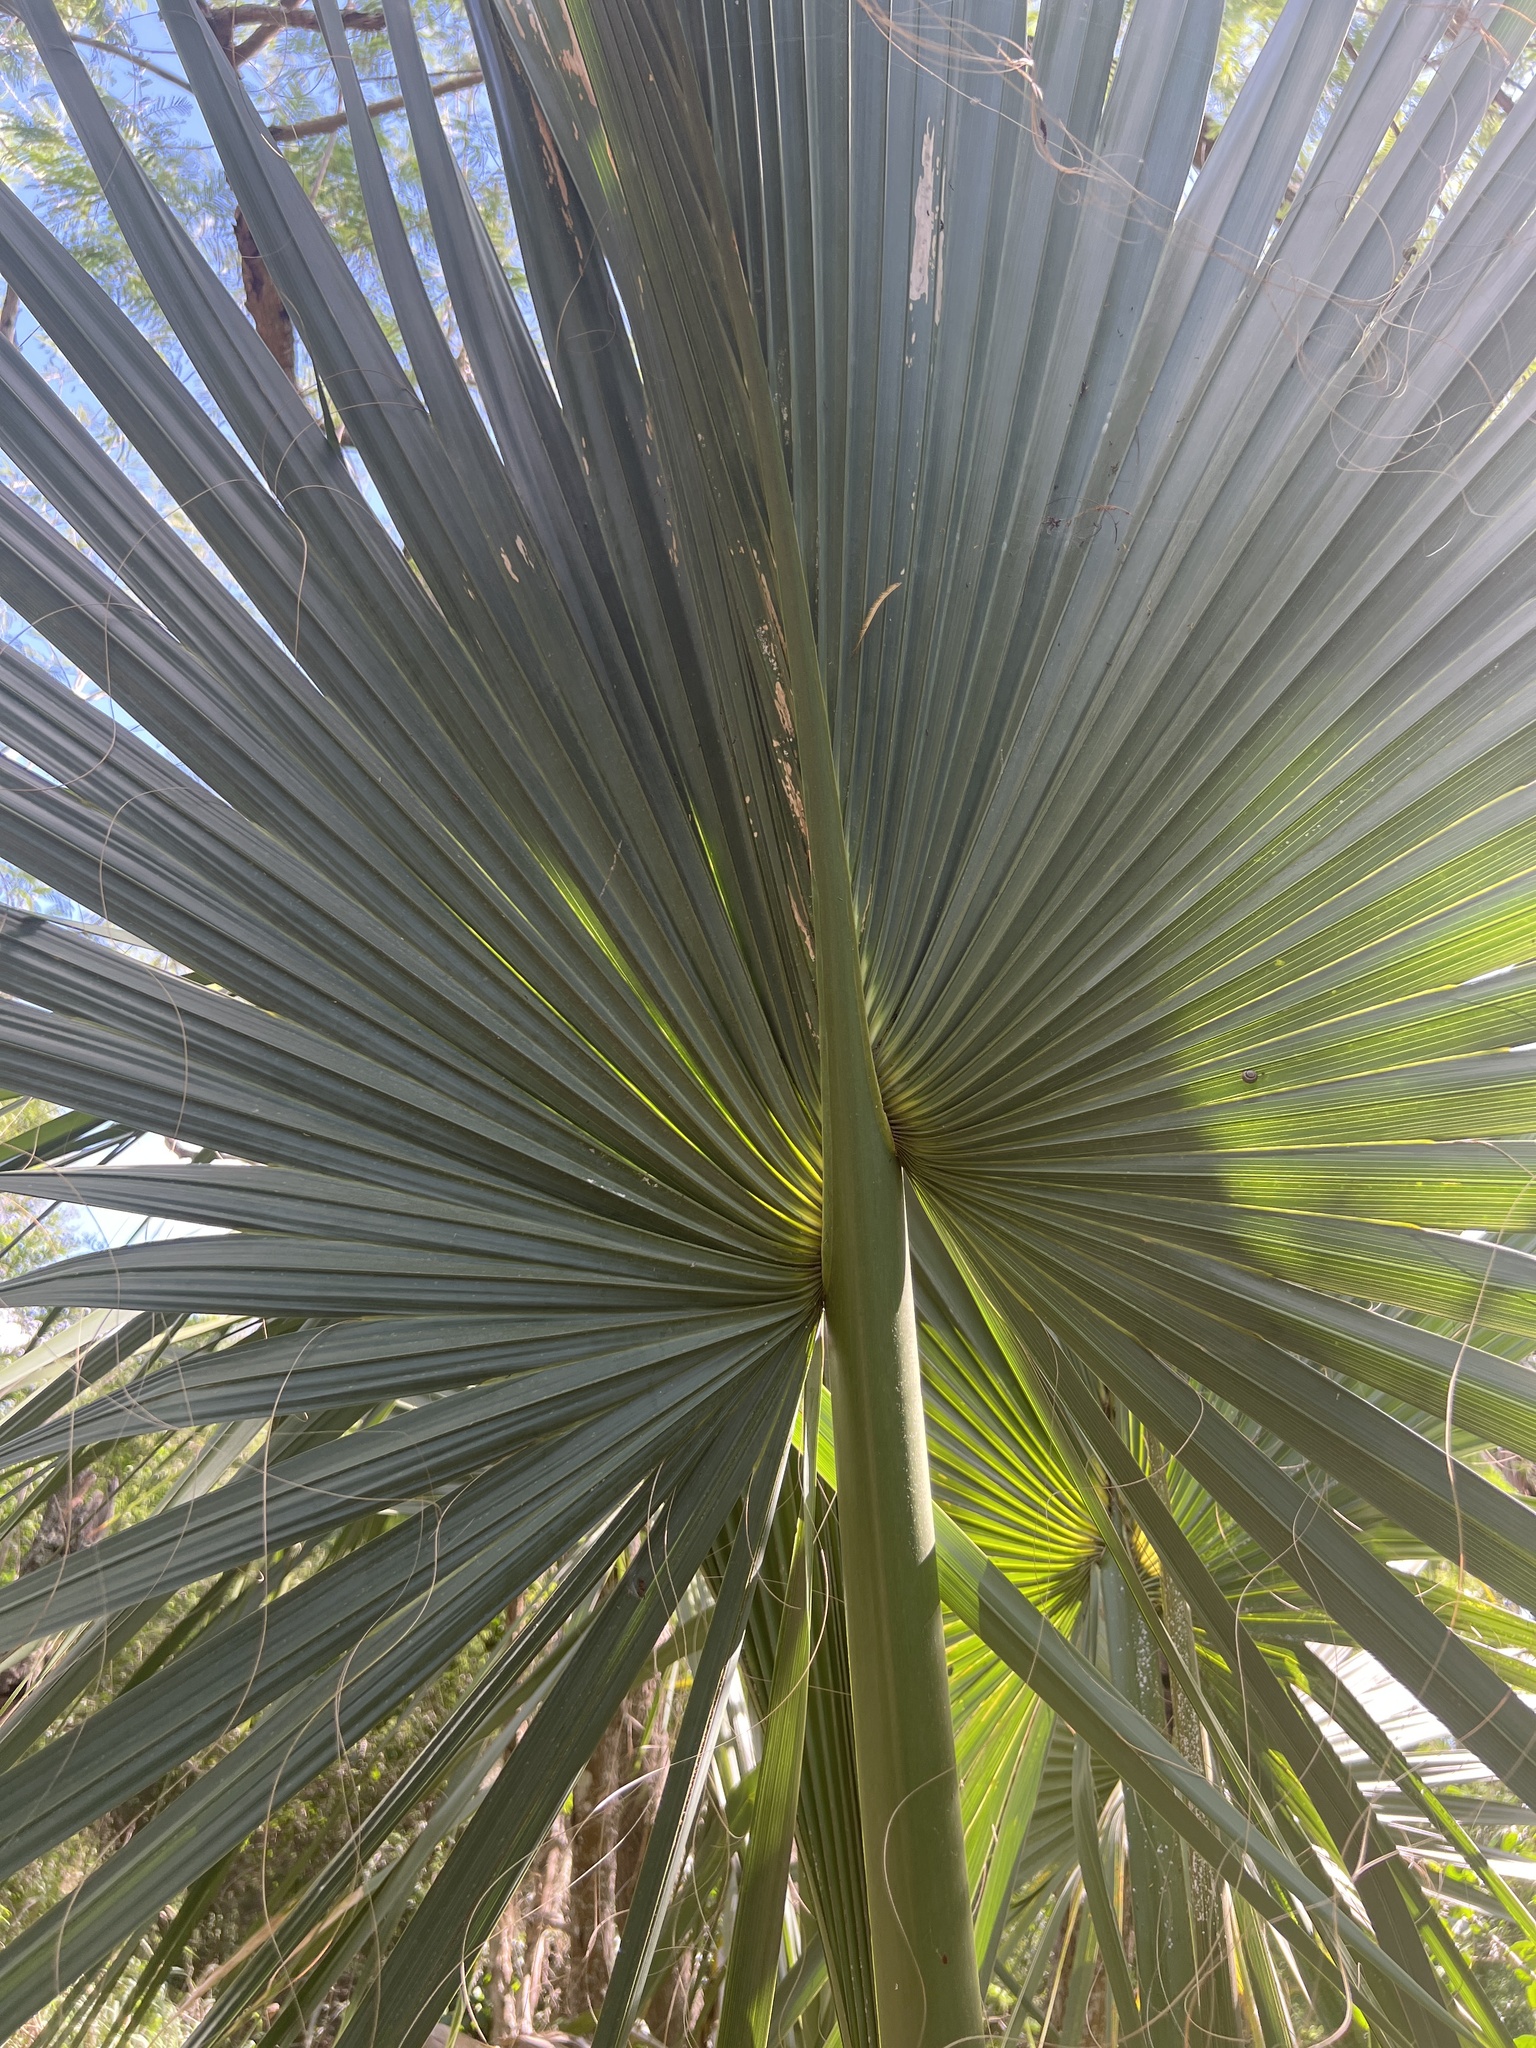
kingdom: Plantae
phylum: Tracheophyta
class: Liliopsida
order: Arecales
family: Arecaceae
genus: Sabal
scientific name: Sabal mexicana
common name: Texas palmetto
